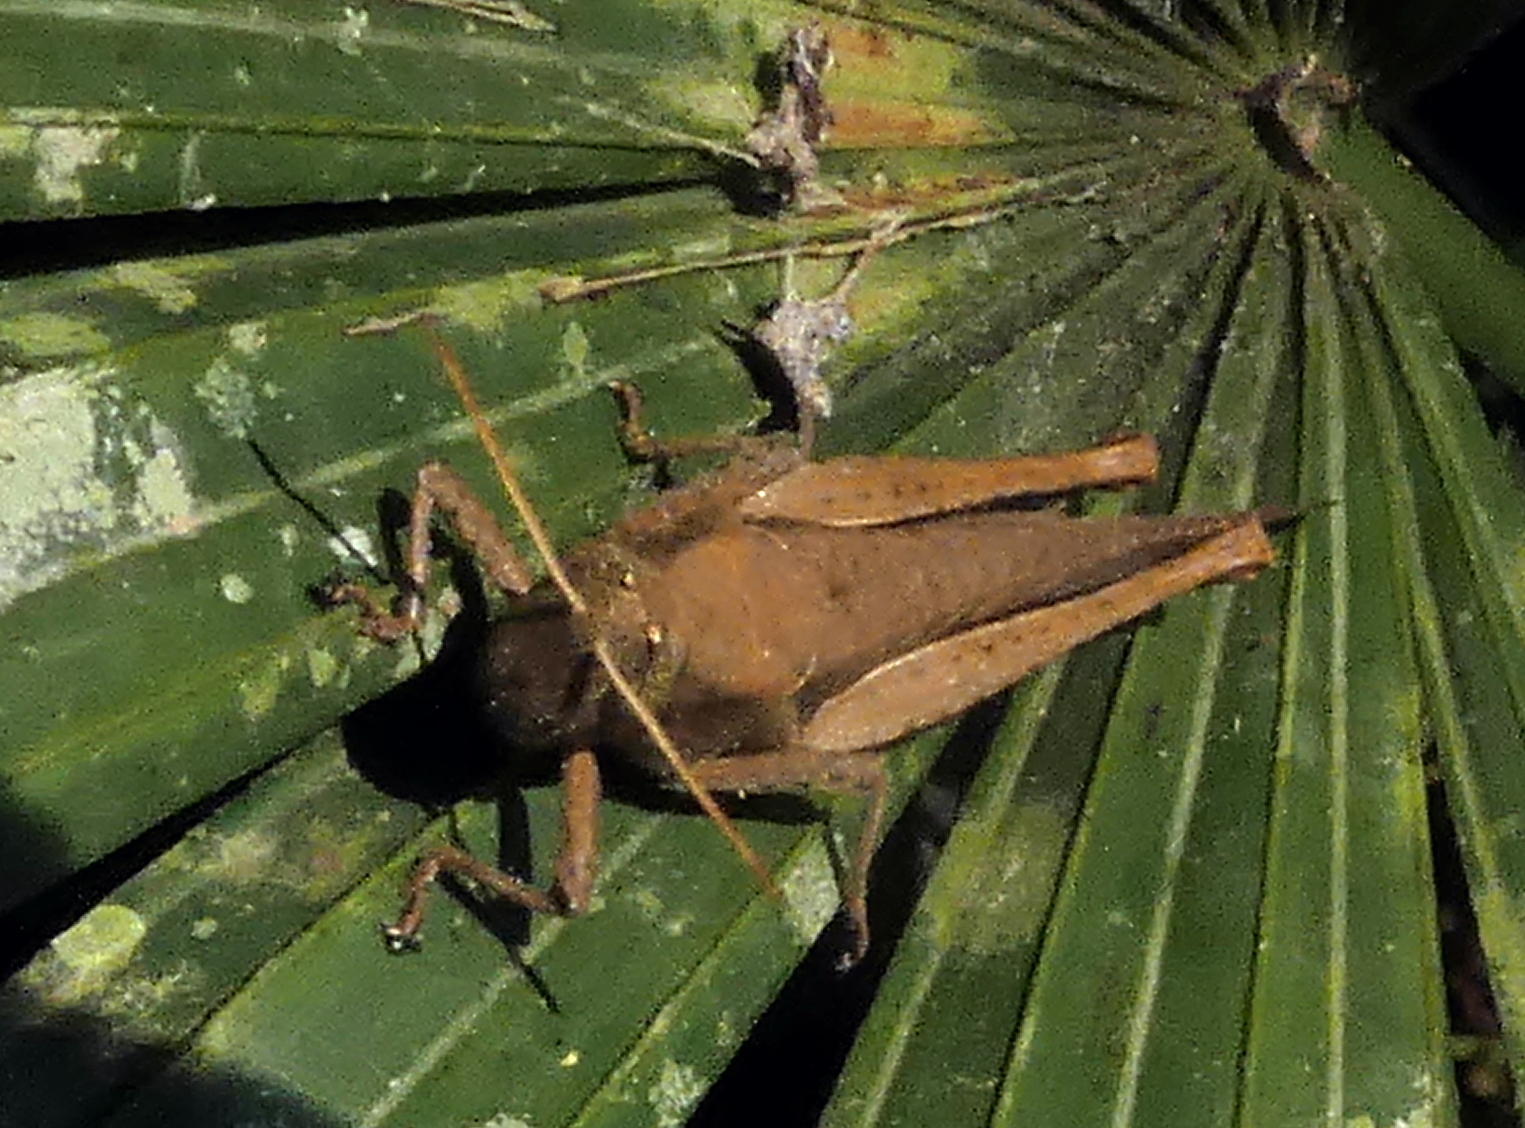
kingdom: Animalia
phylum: Arthropoda
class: Insecta
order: Orthoptera
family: Acrididae
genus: Abracris
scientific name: Abracris flavolineata
